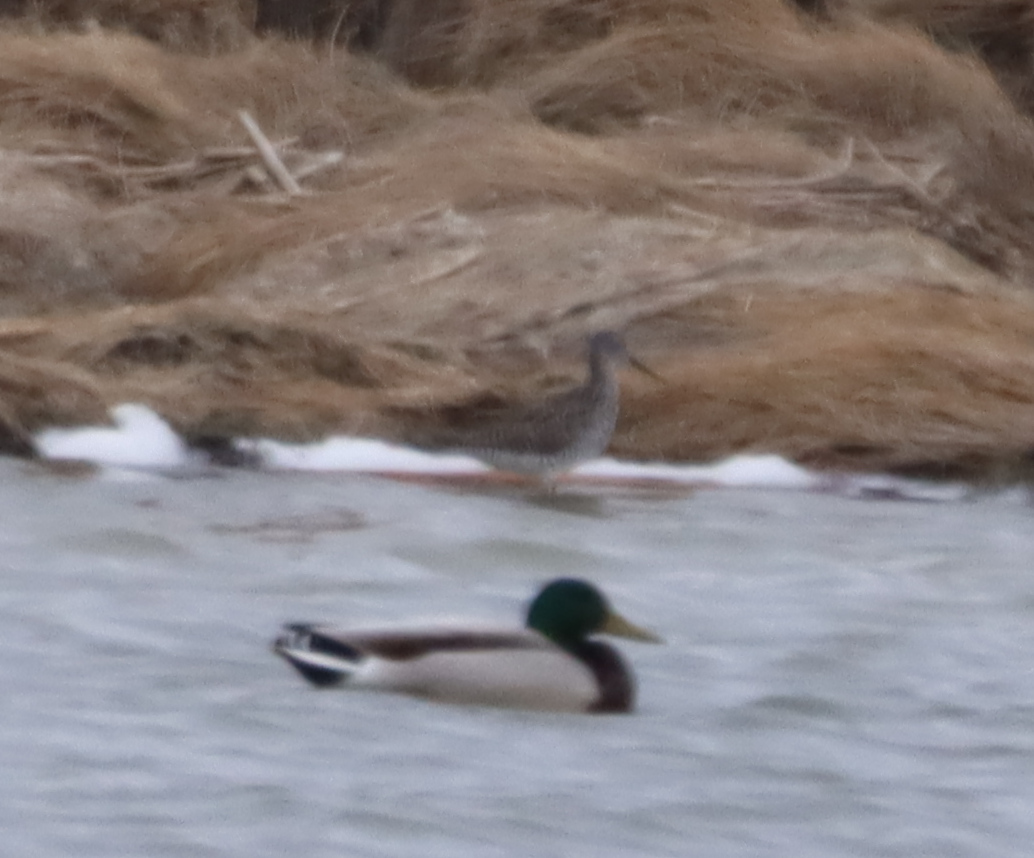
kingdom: Animalia
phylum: Chordata
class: Aves
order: Charadriiformes
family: Scolopacidae
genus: Tringa
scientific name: Tringa melanoleuca
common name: Greater yellowlegs
